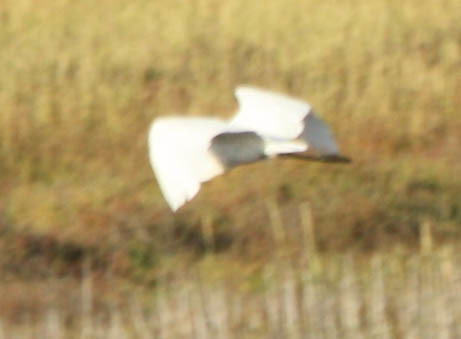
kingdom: Animalia
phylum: Chordata
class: Aves
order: Pelecaniformes
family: Ardeidae
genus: Ardea
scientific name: Ardea alba
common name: Great egret
